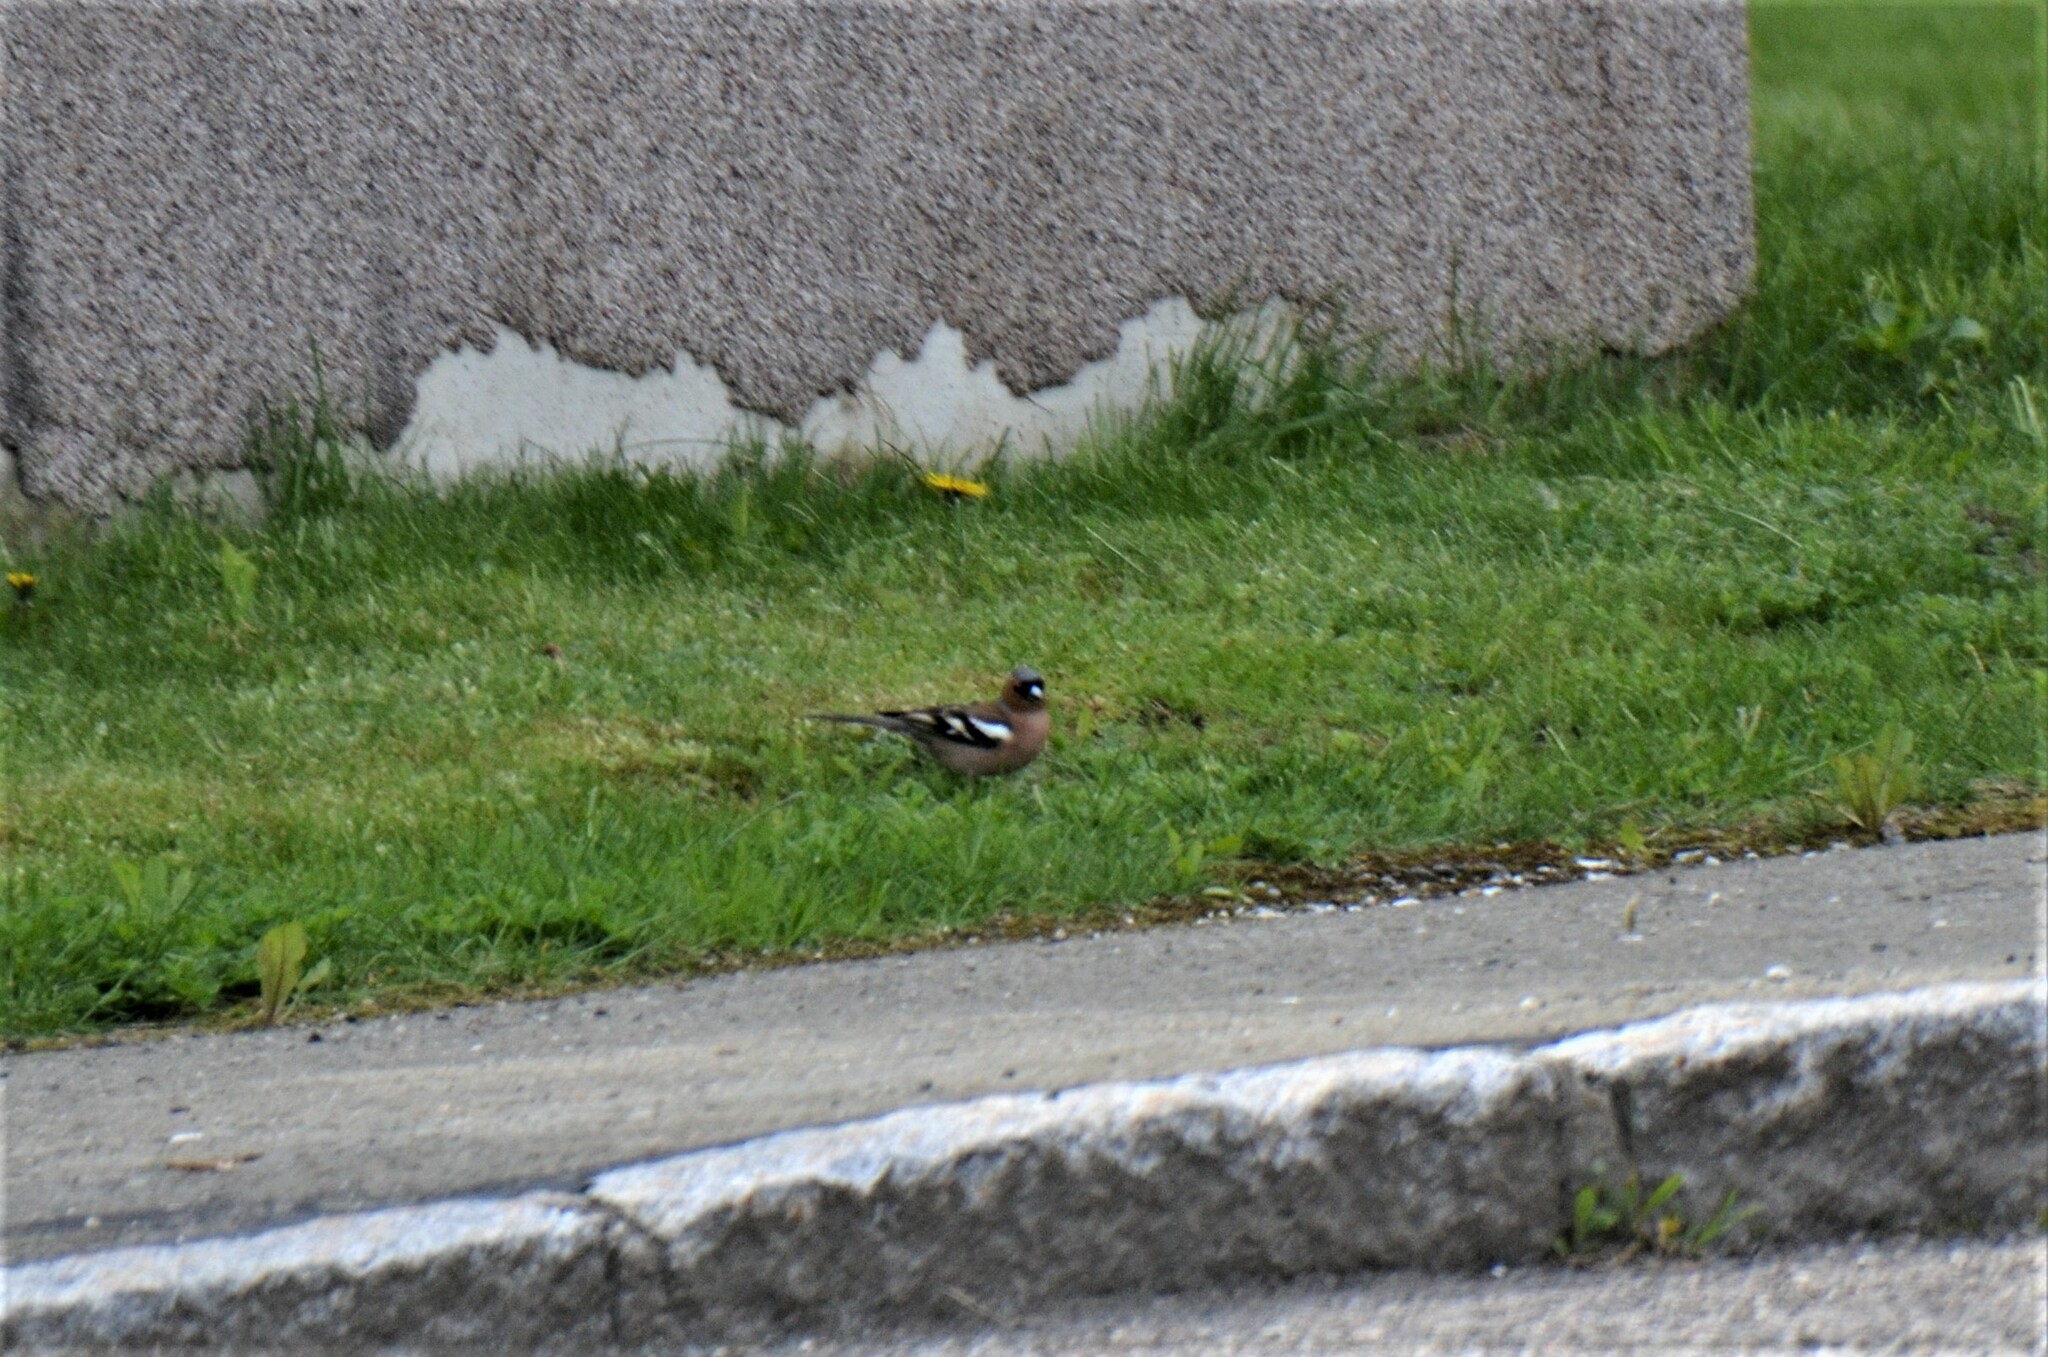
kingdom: Animalia
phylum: Chordata
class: Aves
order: Passeriformes
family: Fringillidae
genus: Fringilla
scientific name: Fringilla coelebs
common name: Common chaffinch
